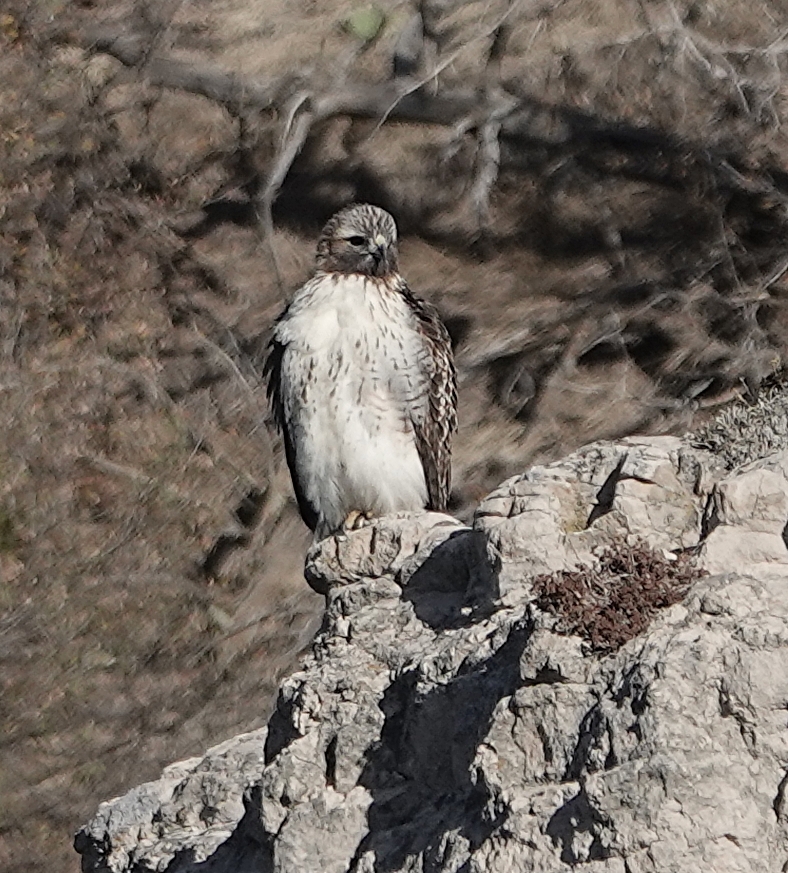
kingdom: Animalia
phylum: Chordata
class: Aves
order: Accipitriformes
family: Accipitridae
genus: Buteo
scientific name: Buteo jamaicensis
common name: Red-tailed hawk
